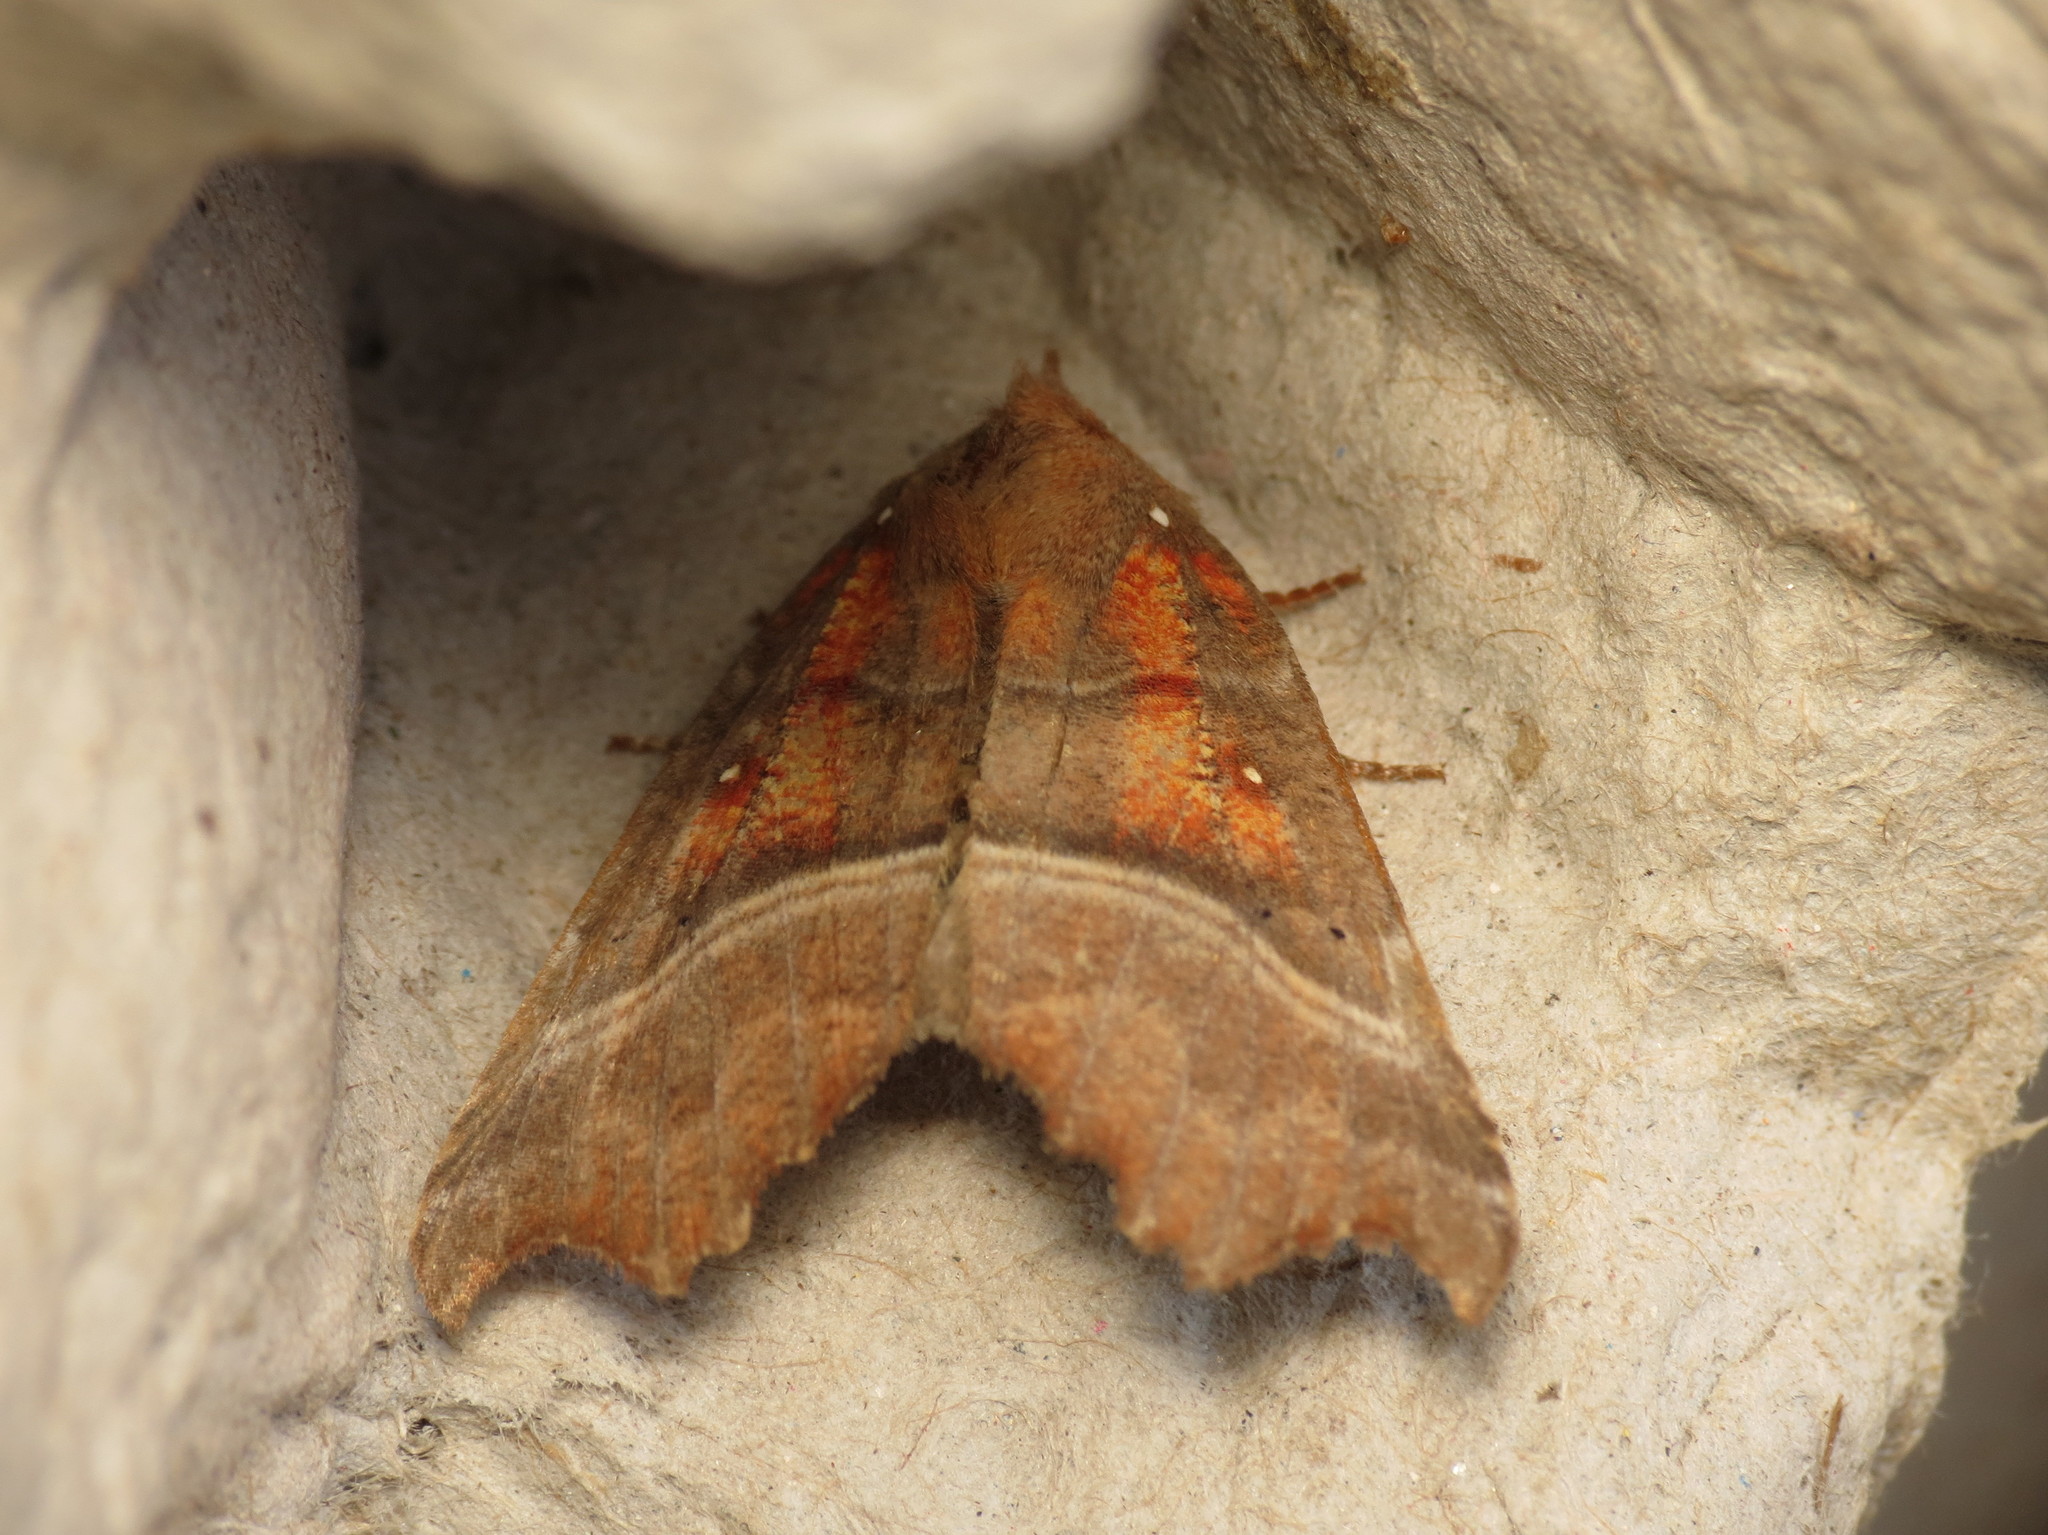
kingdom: Animalia
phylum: Arthropoda
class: Insecta
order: Lepidoptera
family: Erebidae
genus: Scoliopteryx
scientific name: Scoliopteryx libatrix
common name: Herald
